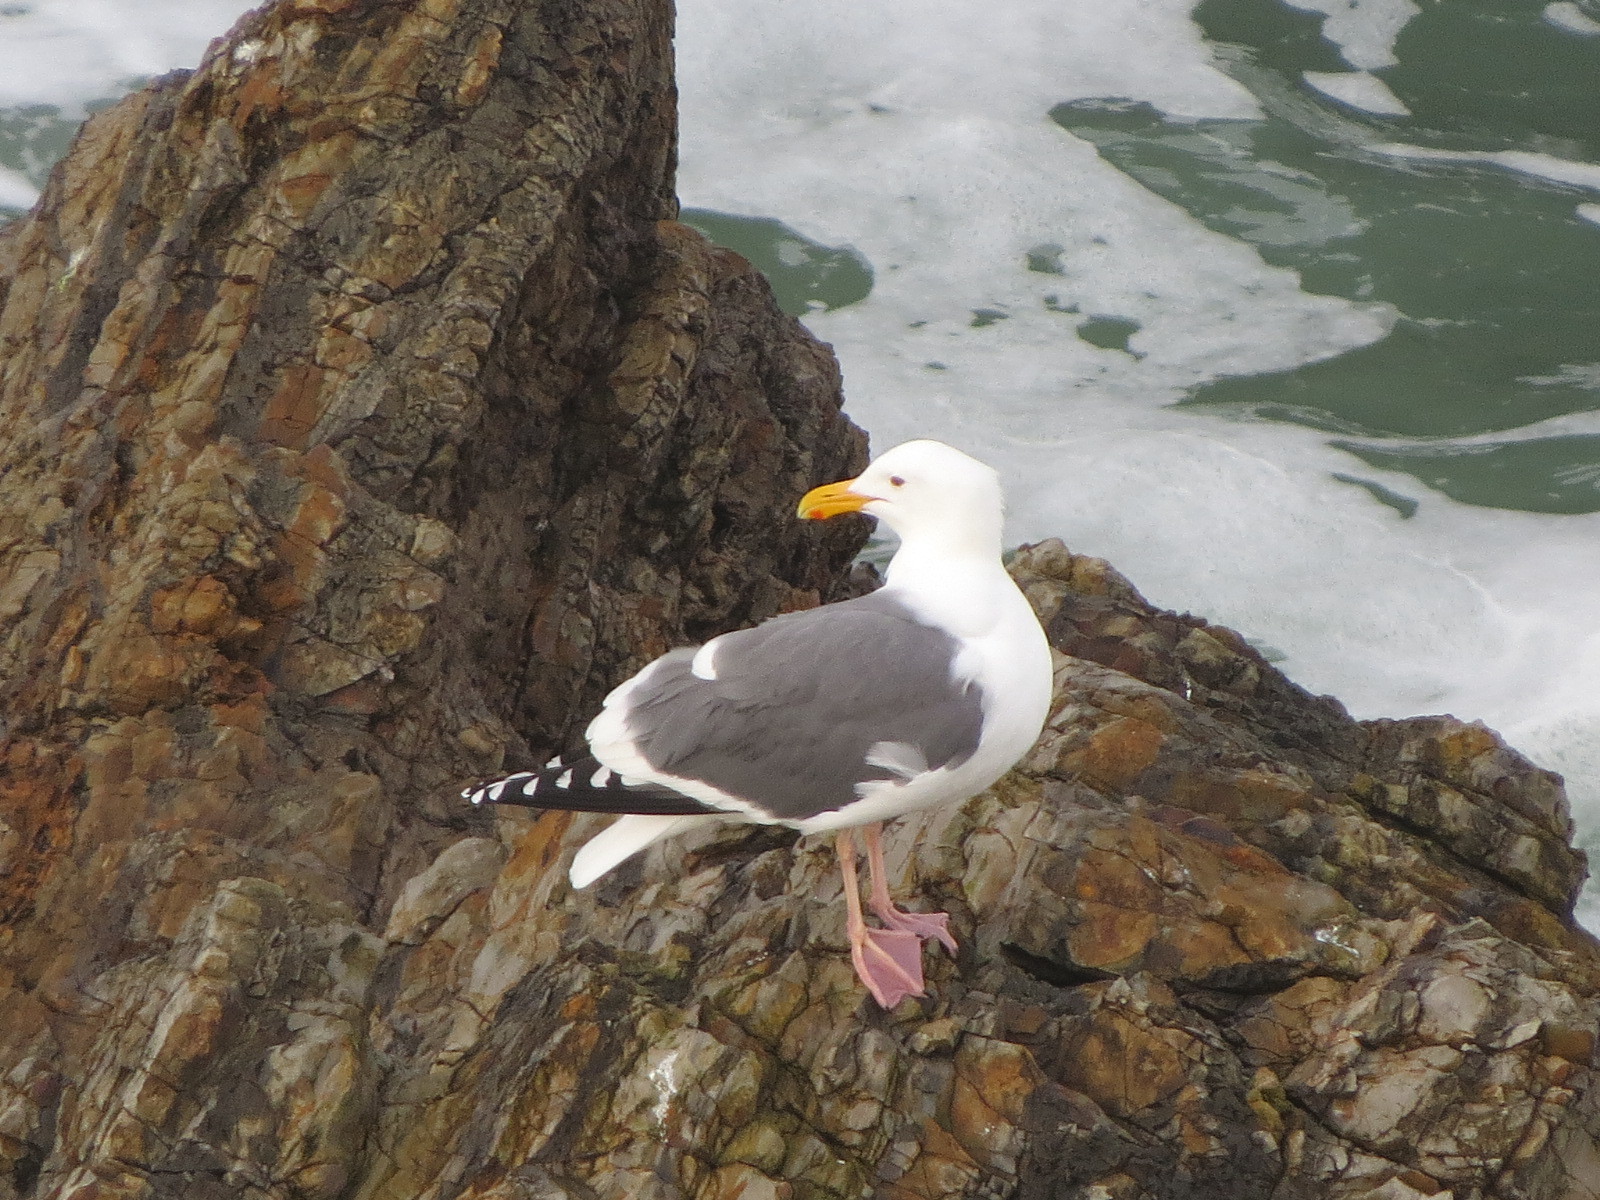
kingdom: Animalia
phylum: Chordata
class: Aves
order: Charadriiformes
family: Laridae
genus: Larus
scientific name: Larus occidentalis
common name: Western gull
